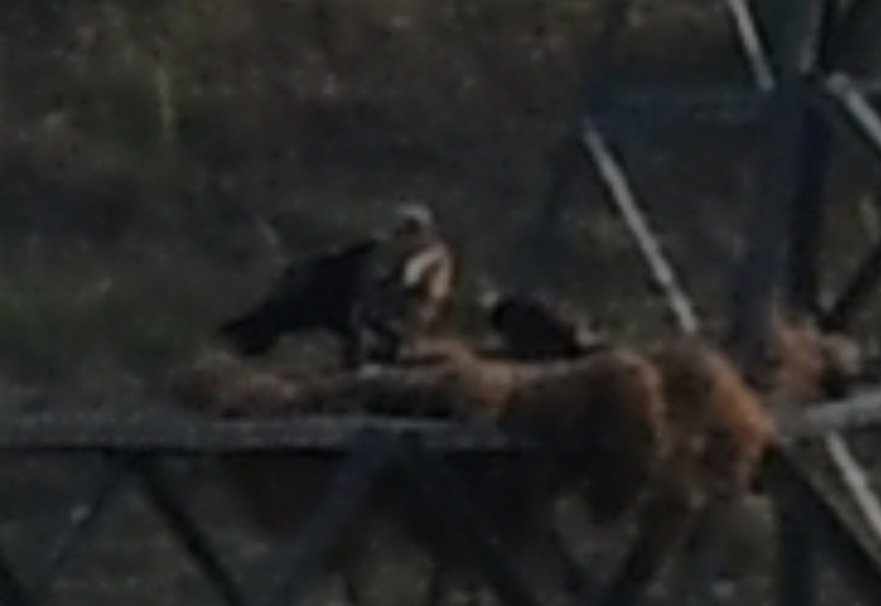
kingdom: Animalia
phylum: Chordata
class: Aves
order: Accipitriformes
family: Accipitridae
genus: Aquila
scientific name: Aquila heliaca
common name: Eastern imperial eagle
